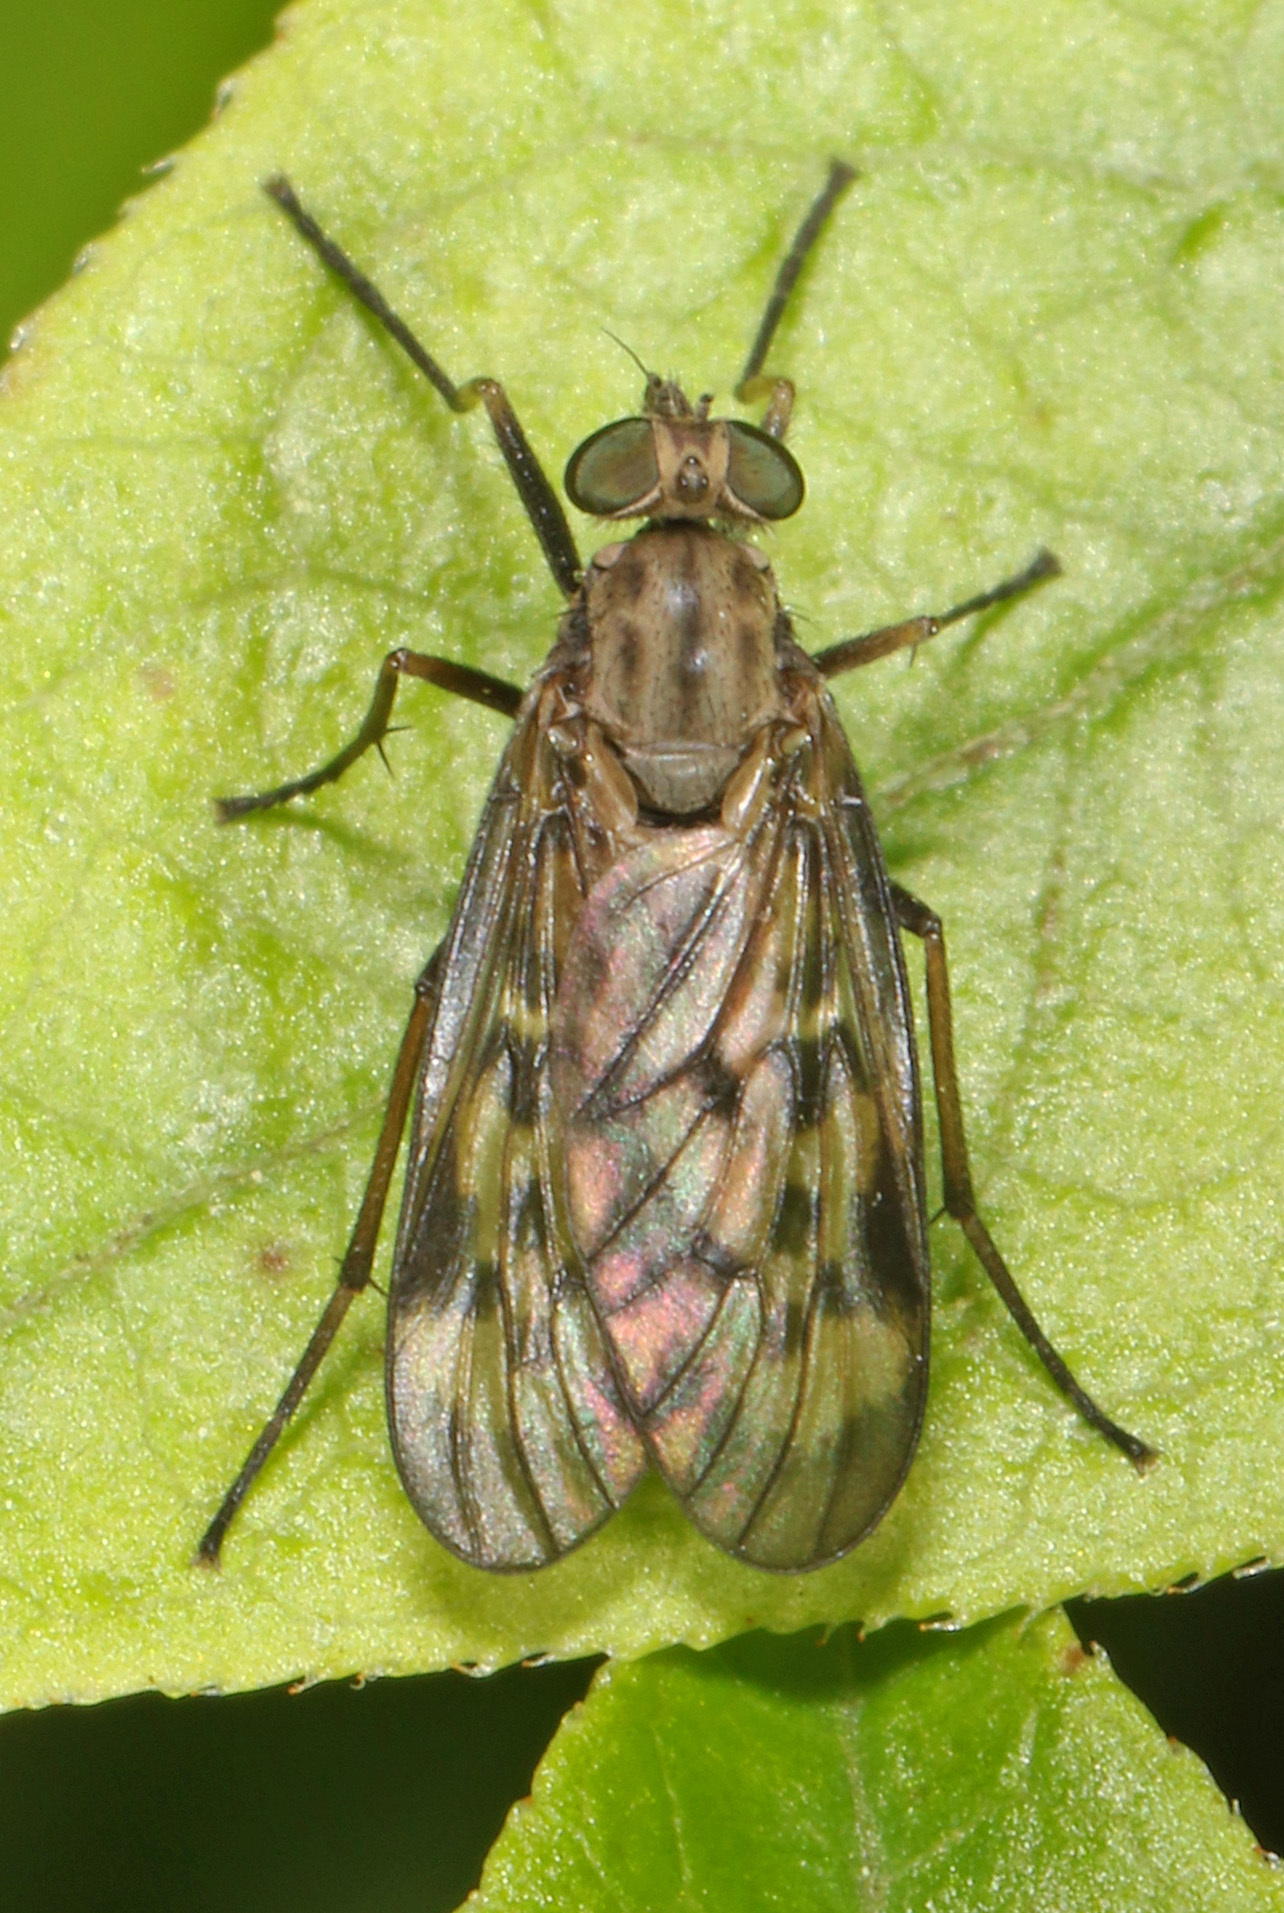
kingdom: Animalia
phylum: Arthropoda
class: Insecta
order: Diptera
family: Rhagionidae
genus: Rhagio
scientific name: Rhagio punctipennis
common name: Lesser variegated snipe fly
